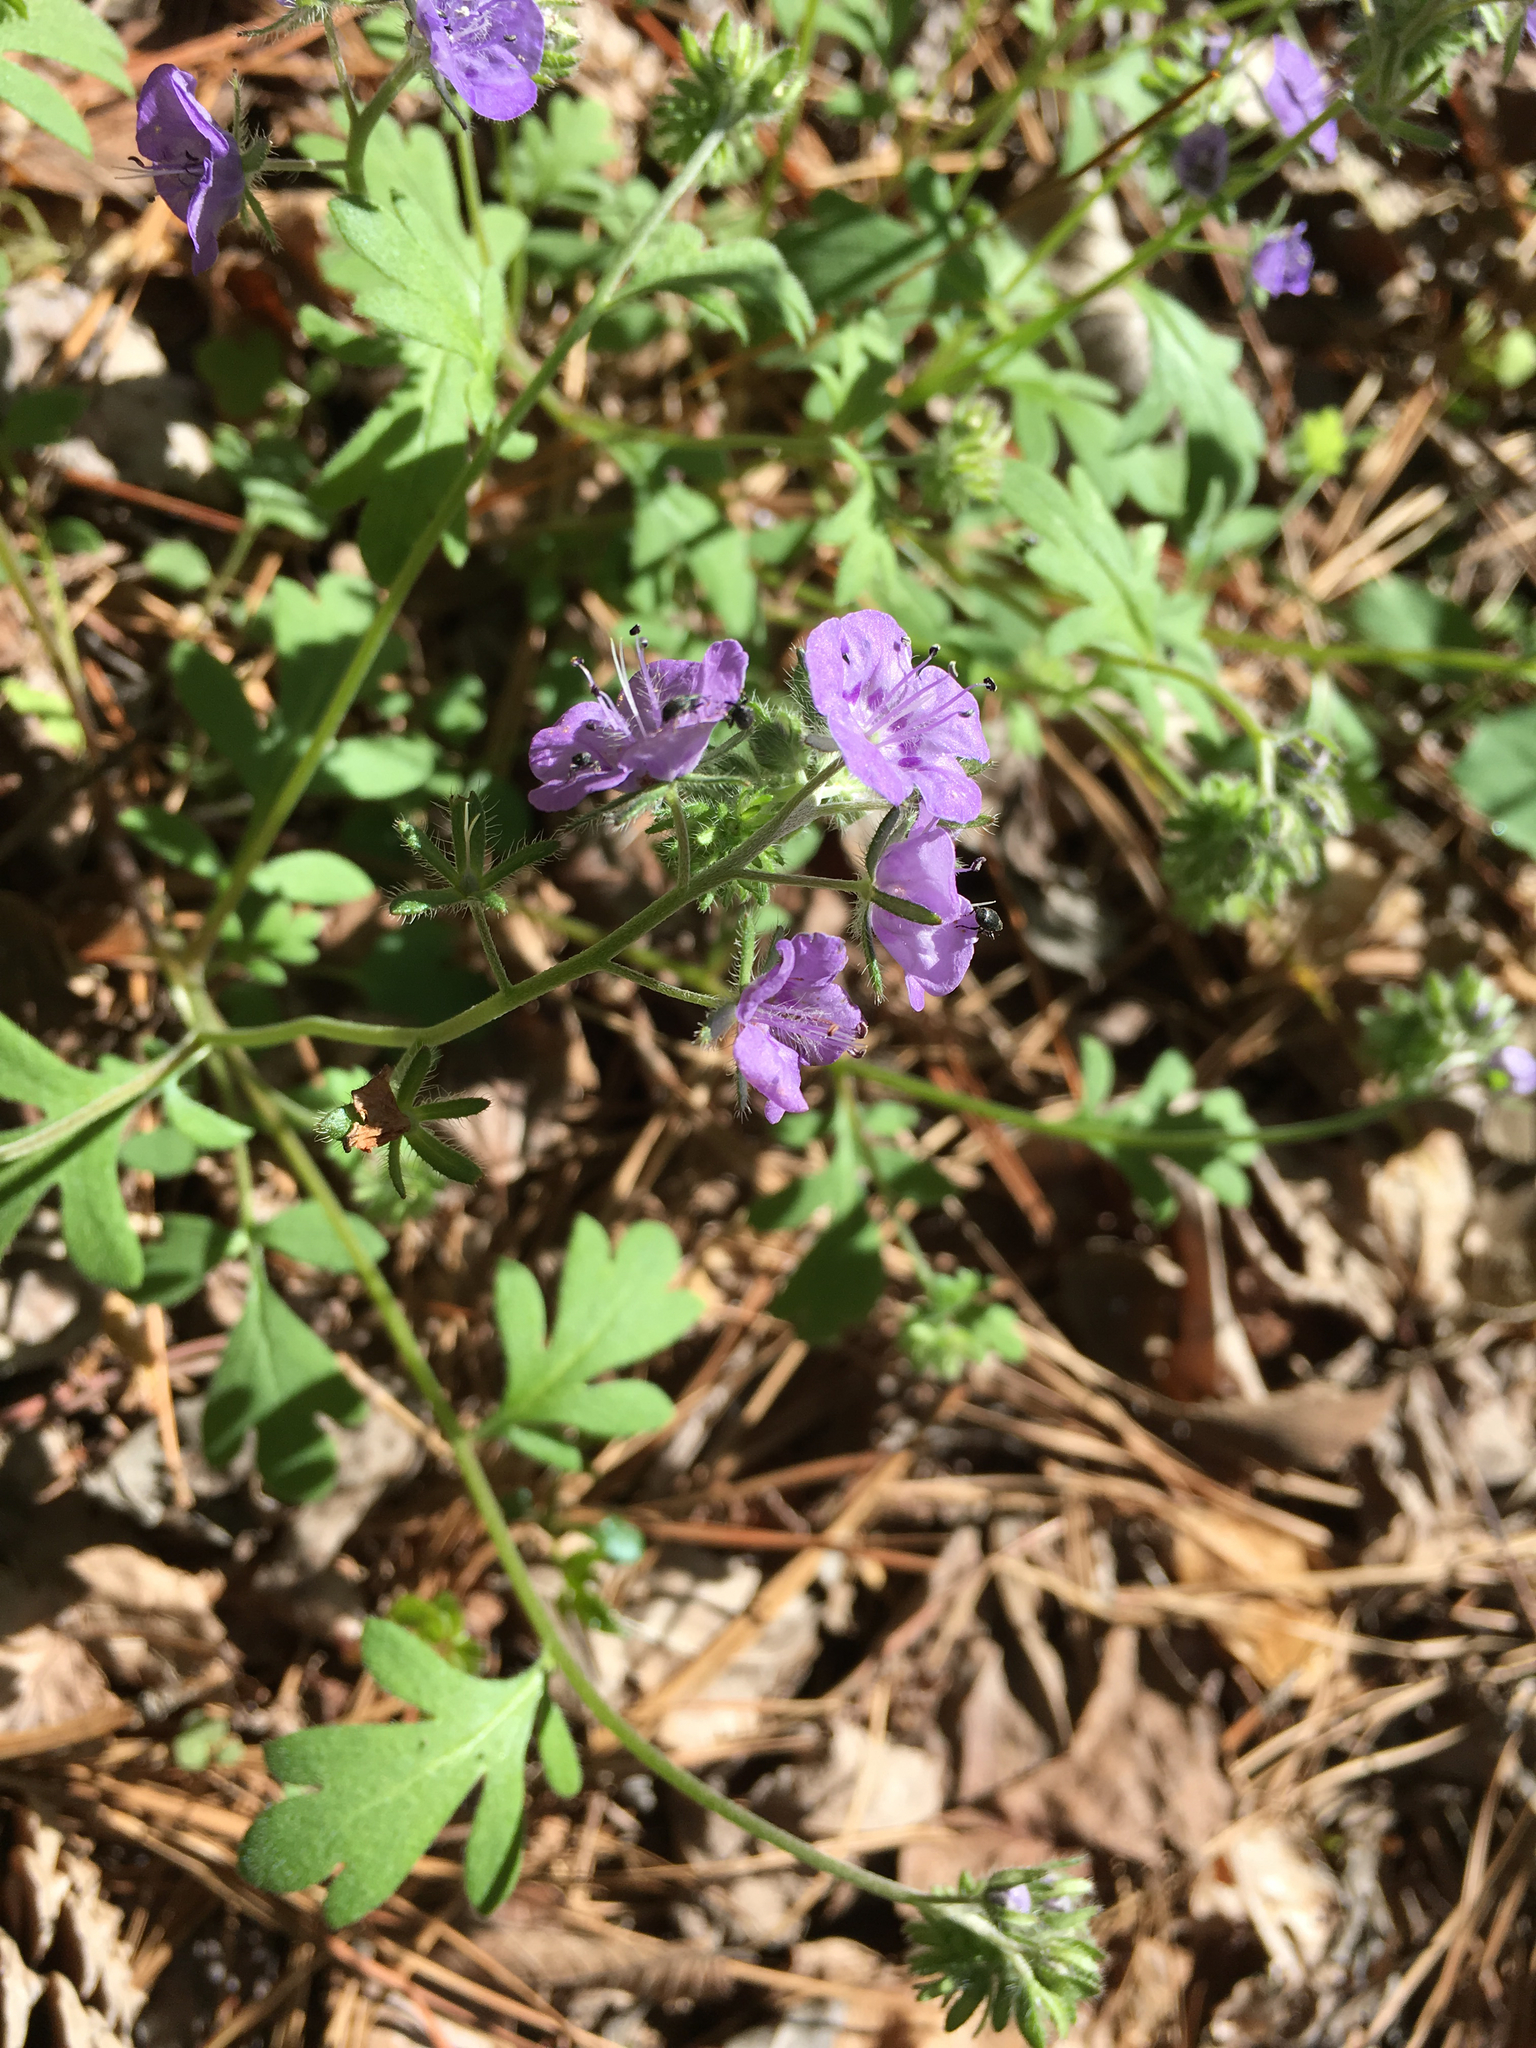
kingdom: Plantae
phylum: Tracheophyta
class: Magnoliopsida
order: Boraginales
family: Hydrophyllaceae
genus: Phacelia
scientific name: Phacelia maculata
